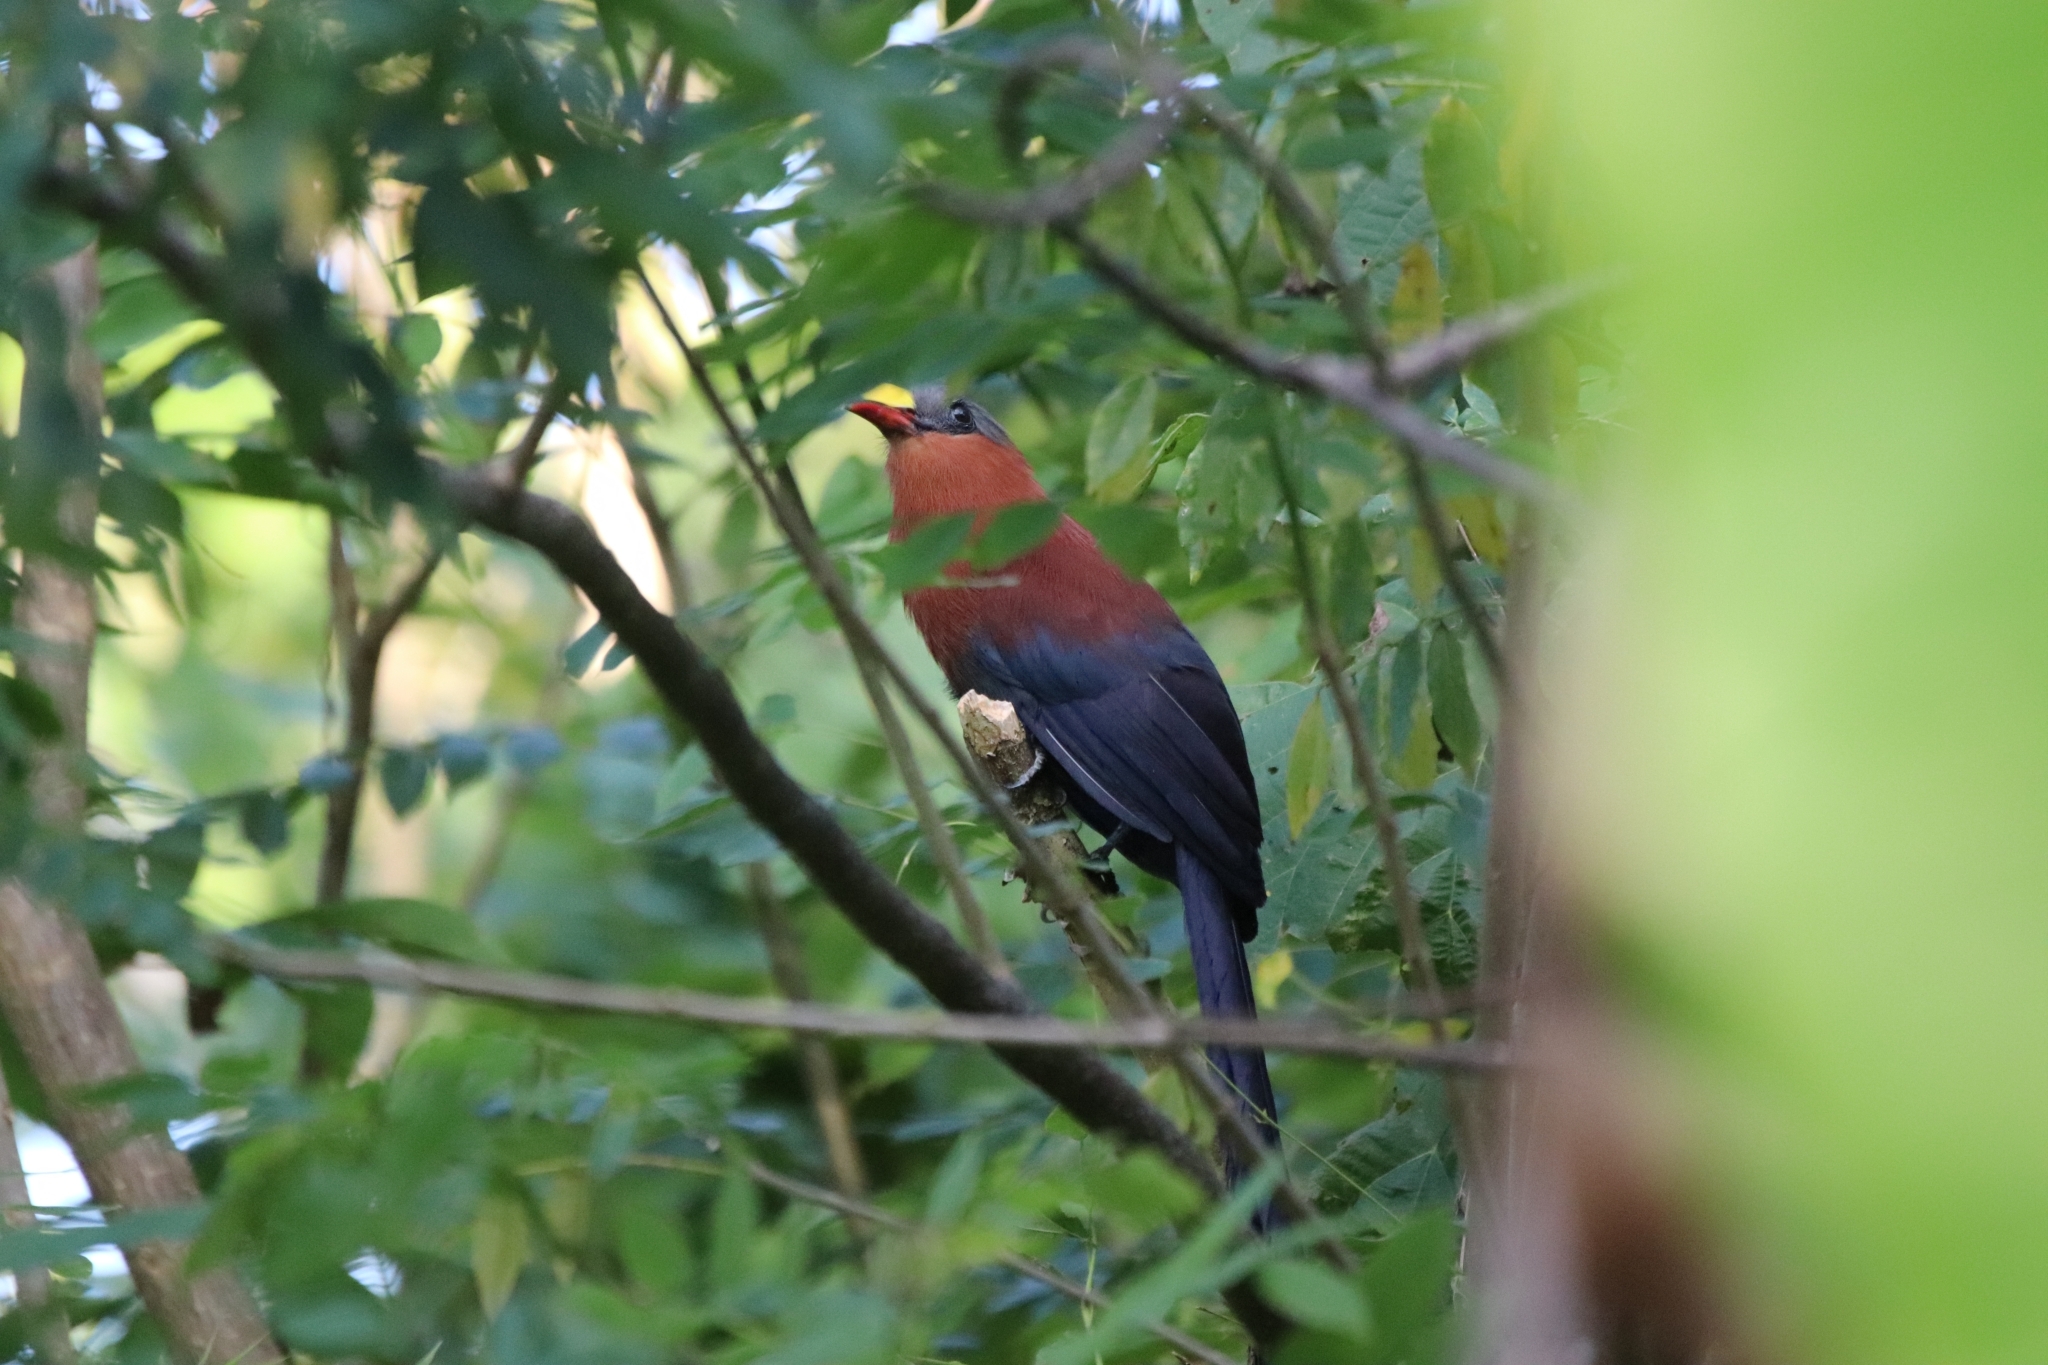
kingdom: Animalia
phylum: Chordata
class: Aves
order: Cuculiformes
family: Cuculidae
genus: Zanclostomus
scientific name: Zanclostomus calyorhynchus
